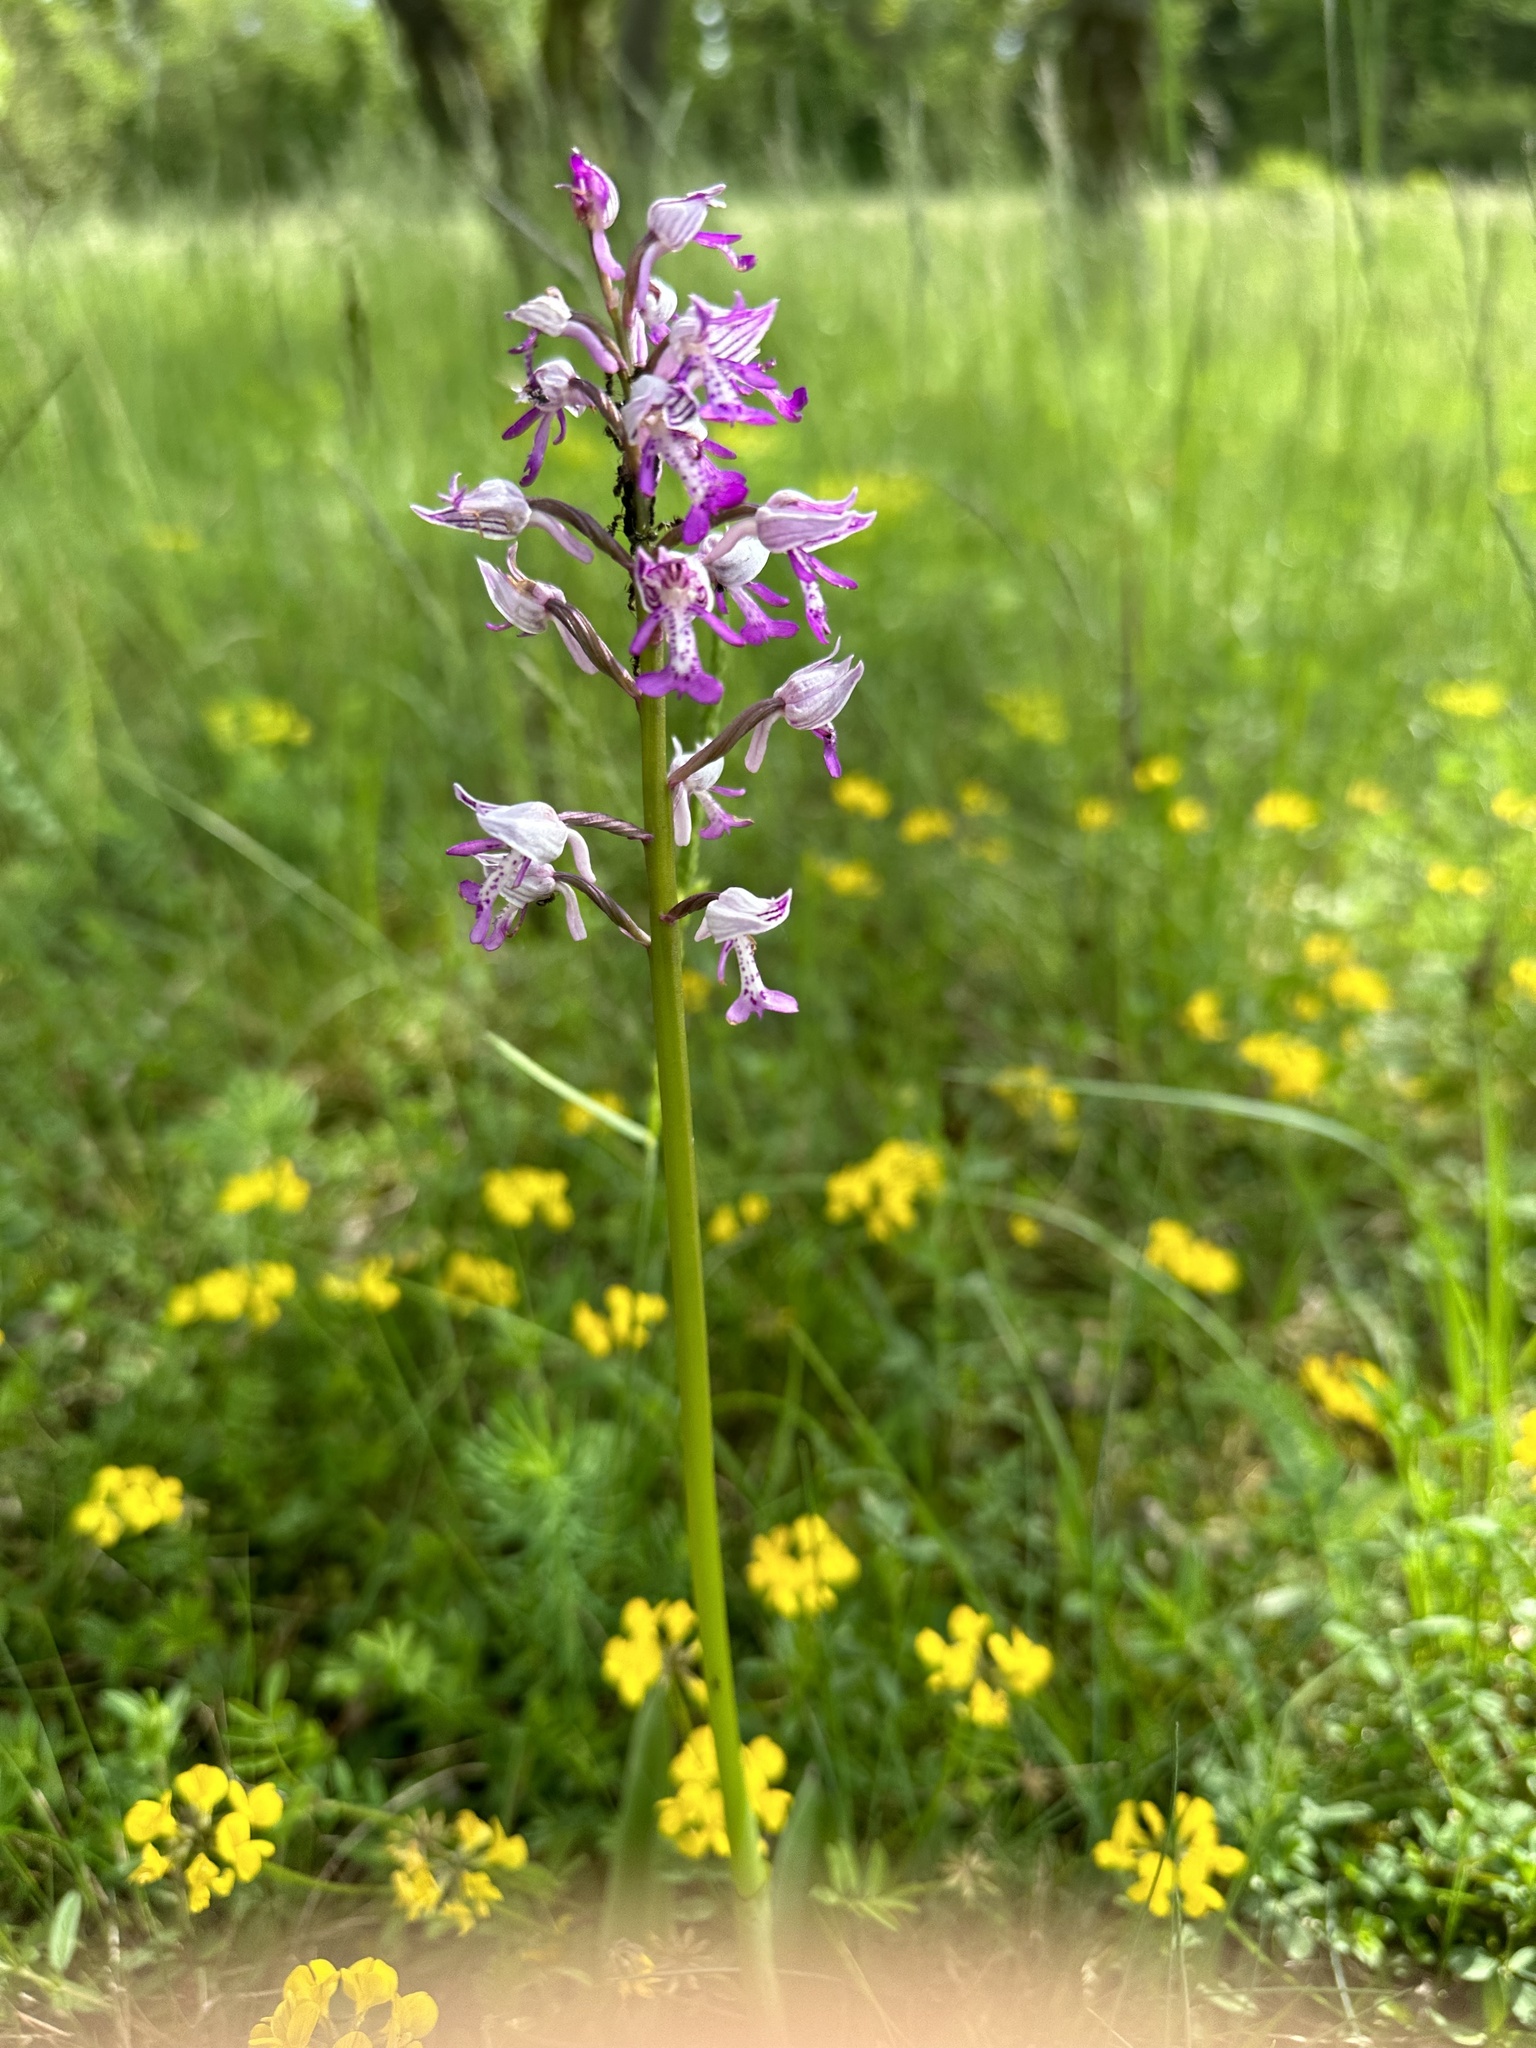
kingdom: Plantae
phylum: Tracheophyta
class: Liliopsida
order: Asparagales
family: Orchidaceae
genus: Orchis
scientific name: Orchis militaris
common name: Military orchid
